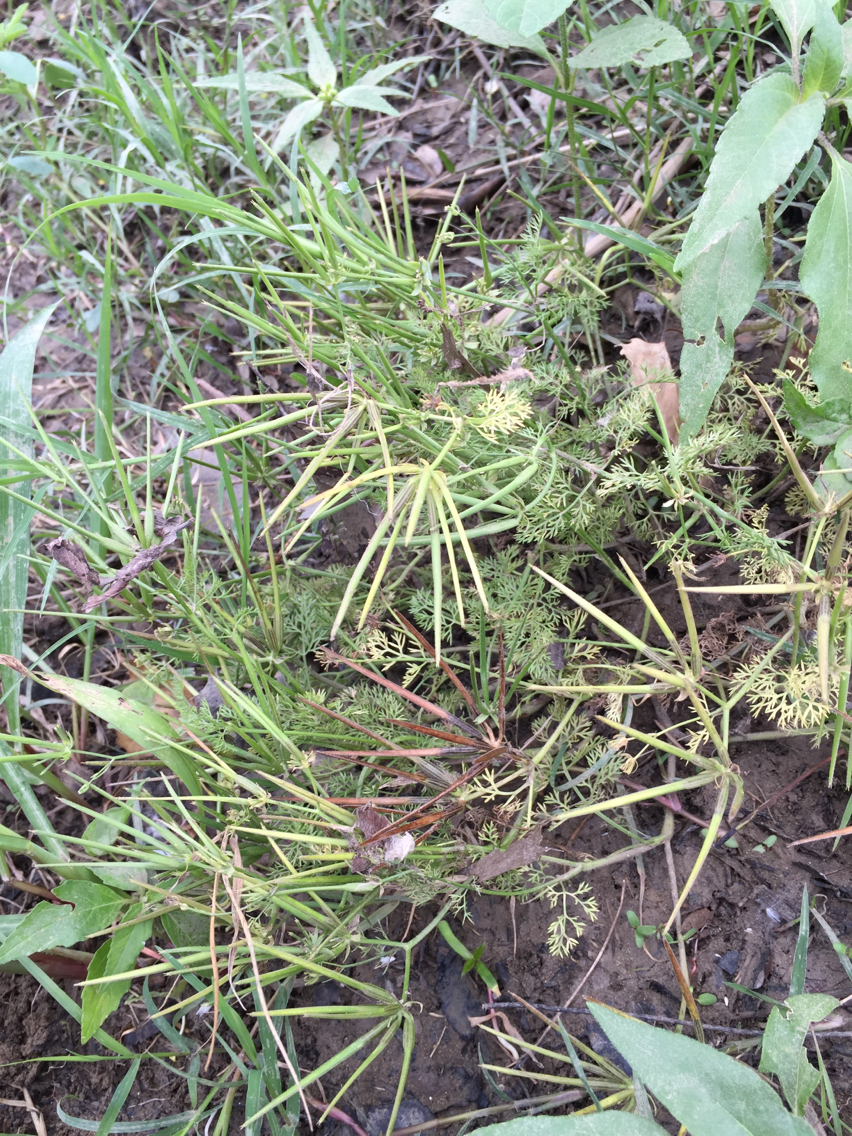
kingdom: Plantae
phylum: Tracheophyta
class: Magnoliopsida
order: Apiales
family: Apiaceae
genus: Scandix
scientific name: Scandix pecten-veneris
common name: Shepherd's-needle
